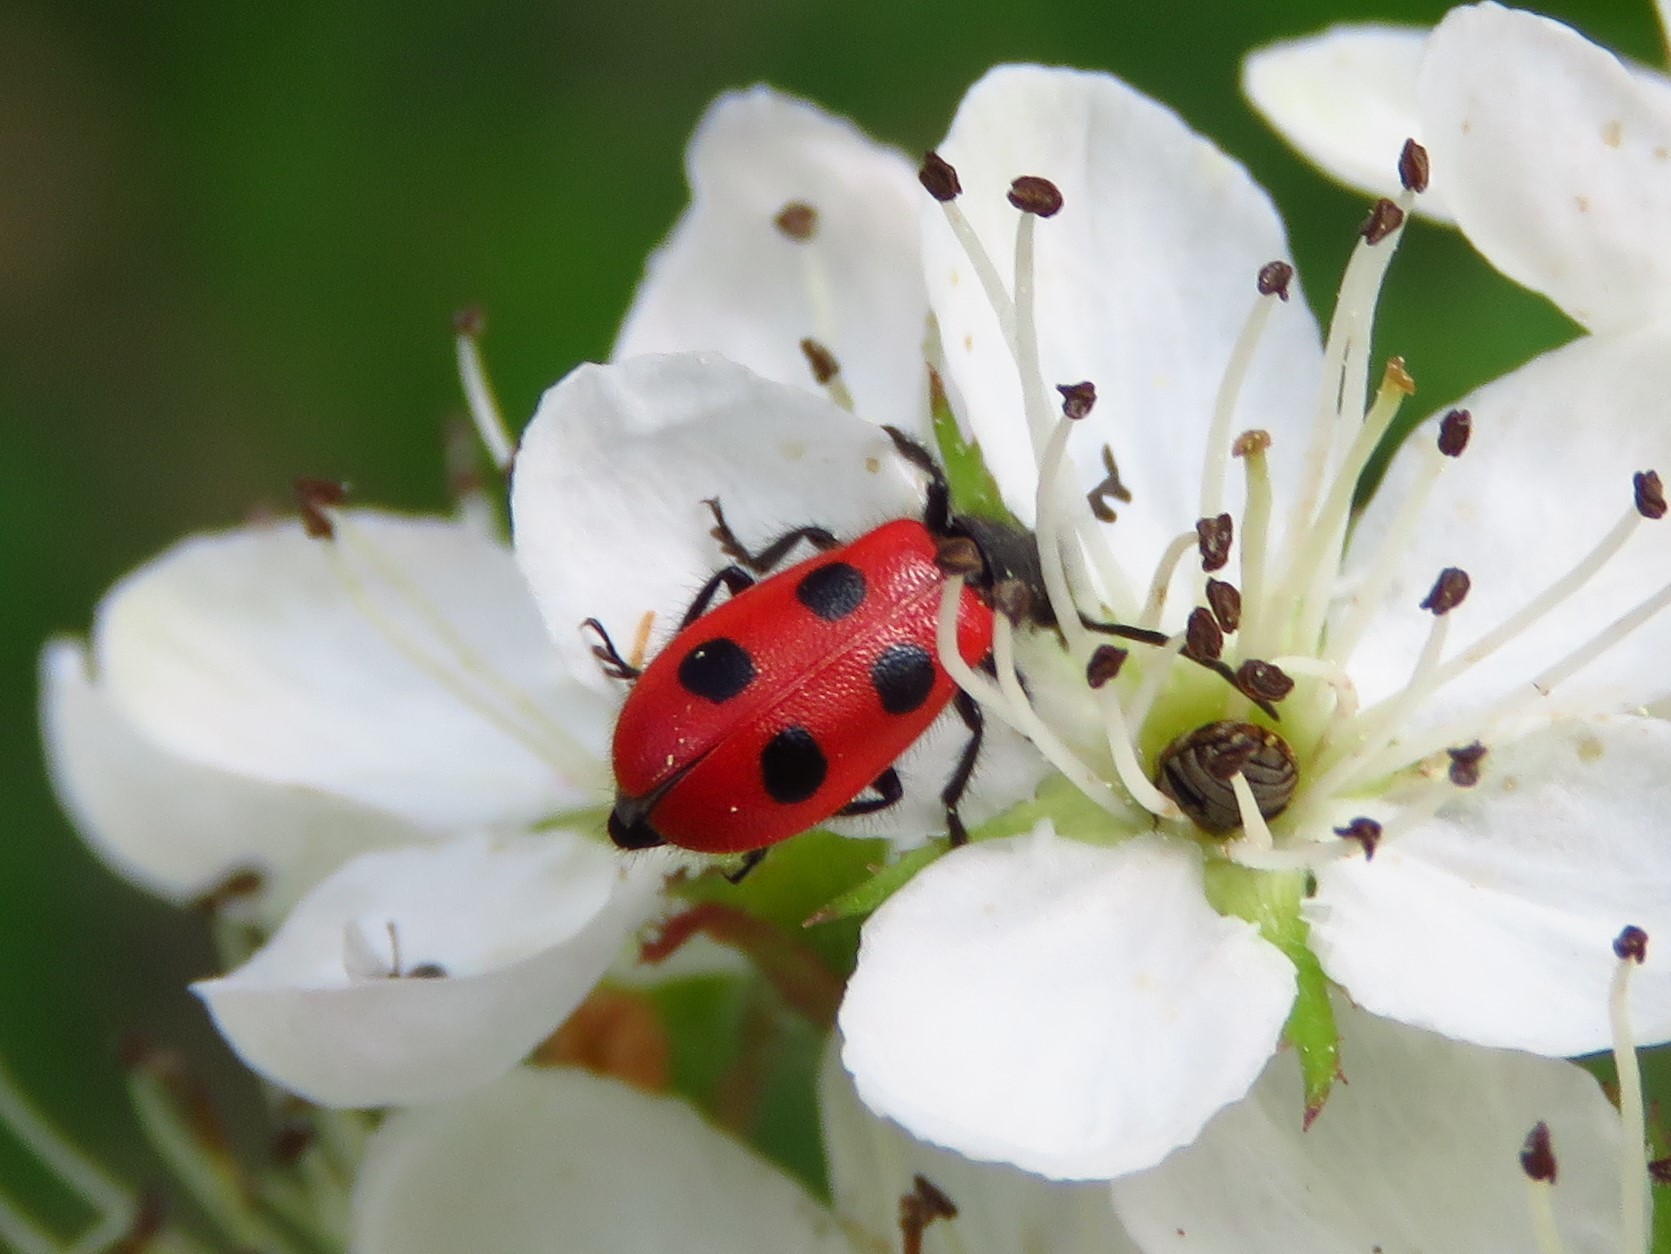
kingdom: Animalia
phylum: Arthropoda
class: Insecta
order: Coleoptera
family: Cleridae
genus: Pelonides
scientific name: Pelonides quadripunctatus
